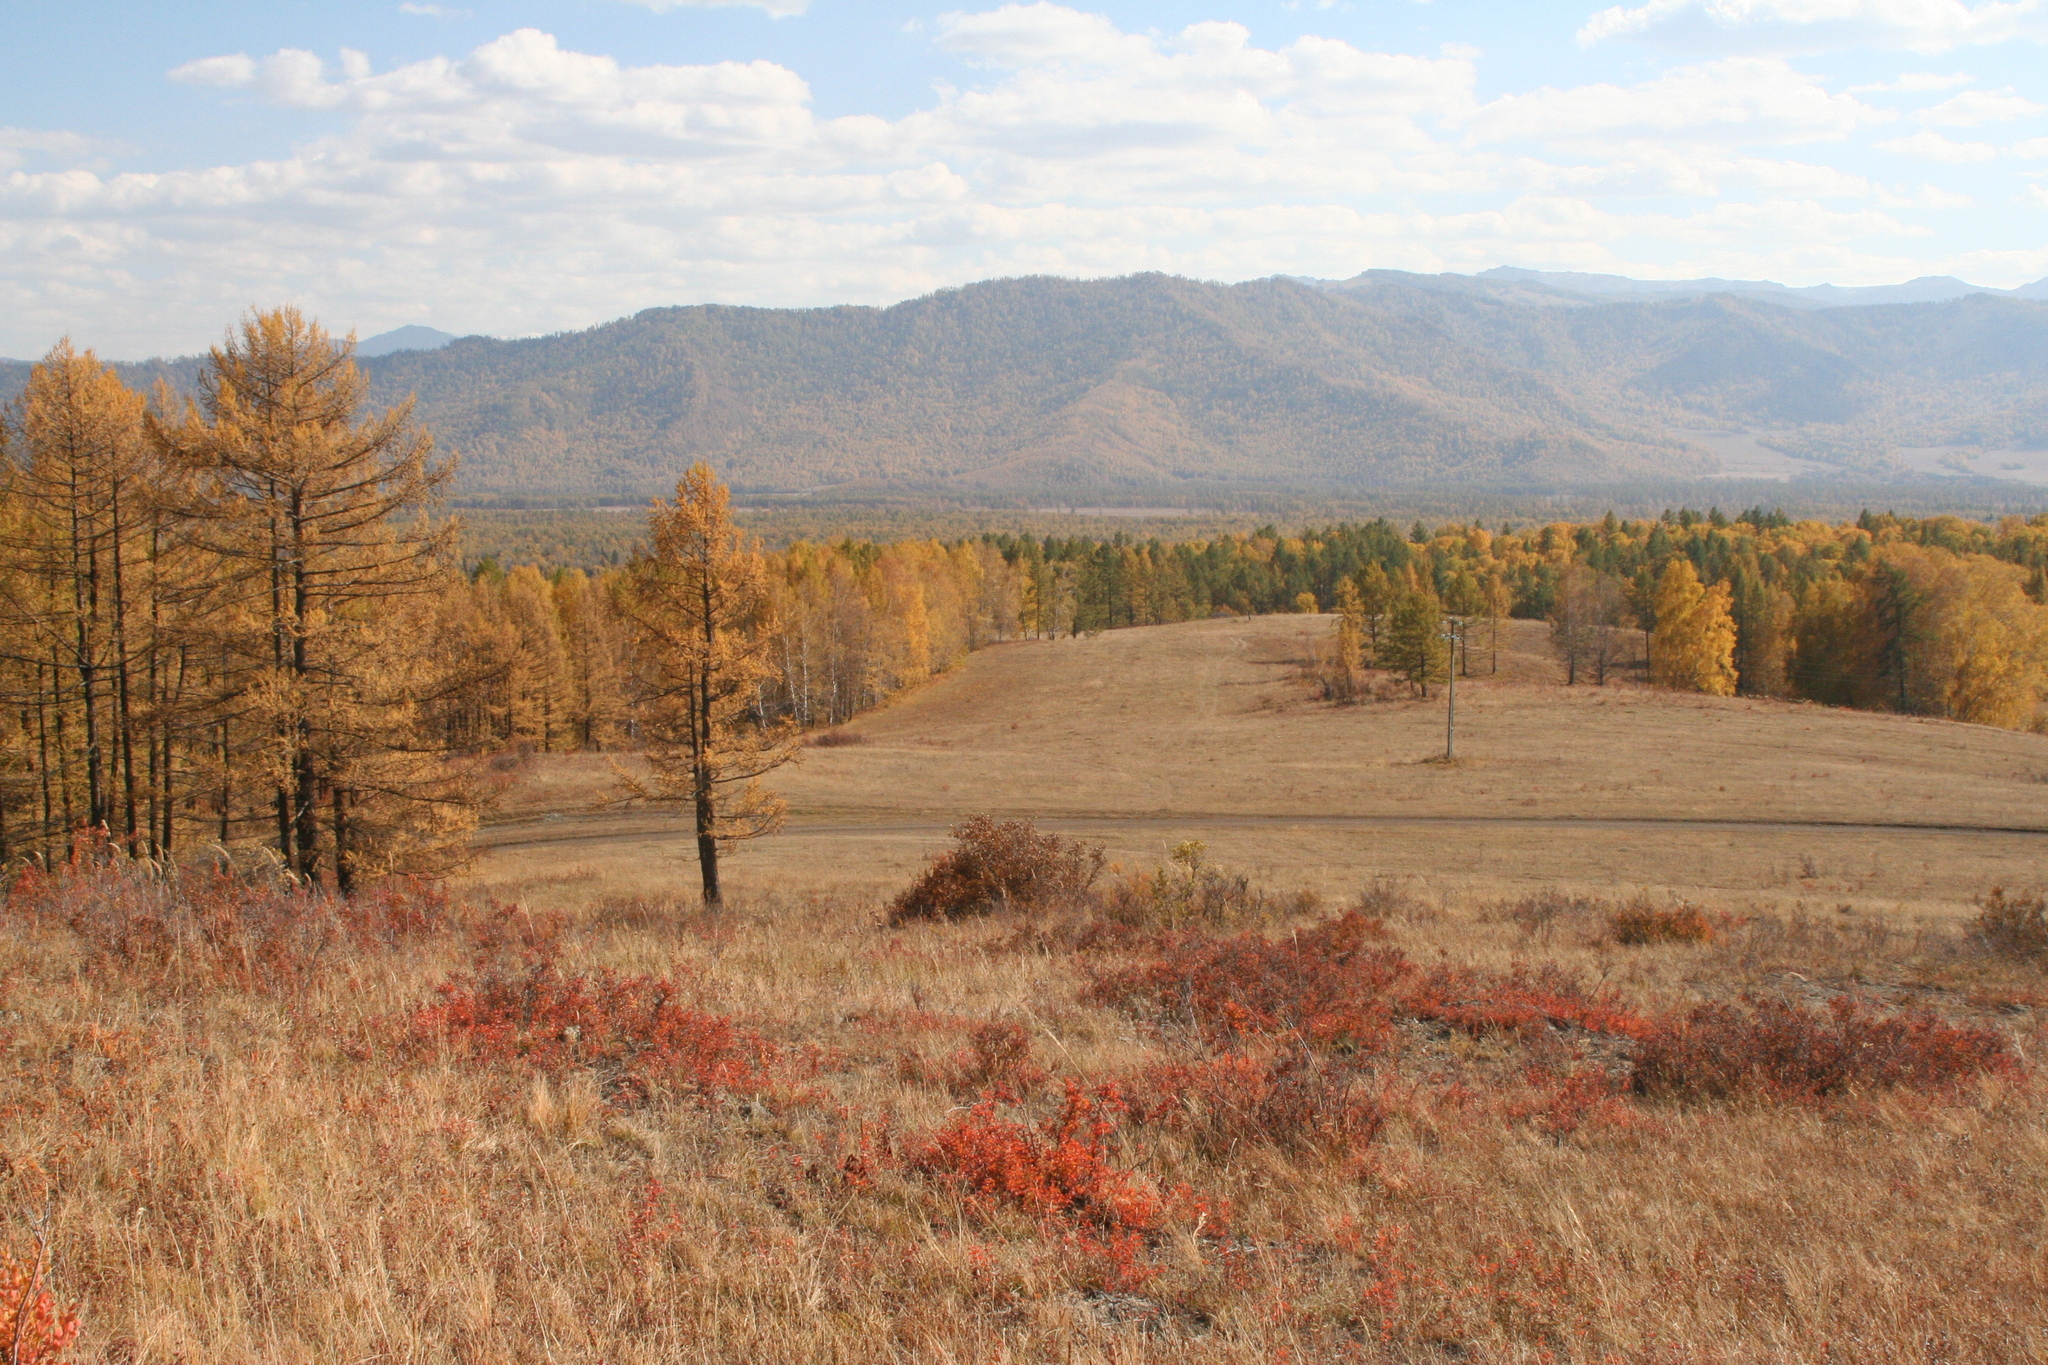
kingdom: Plantae
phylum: Tracheophyta
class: Pinopsida
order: Pinales
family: Pinaceae
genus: Larix
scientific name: Larix sibirica
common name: Siberian larch
